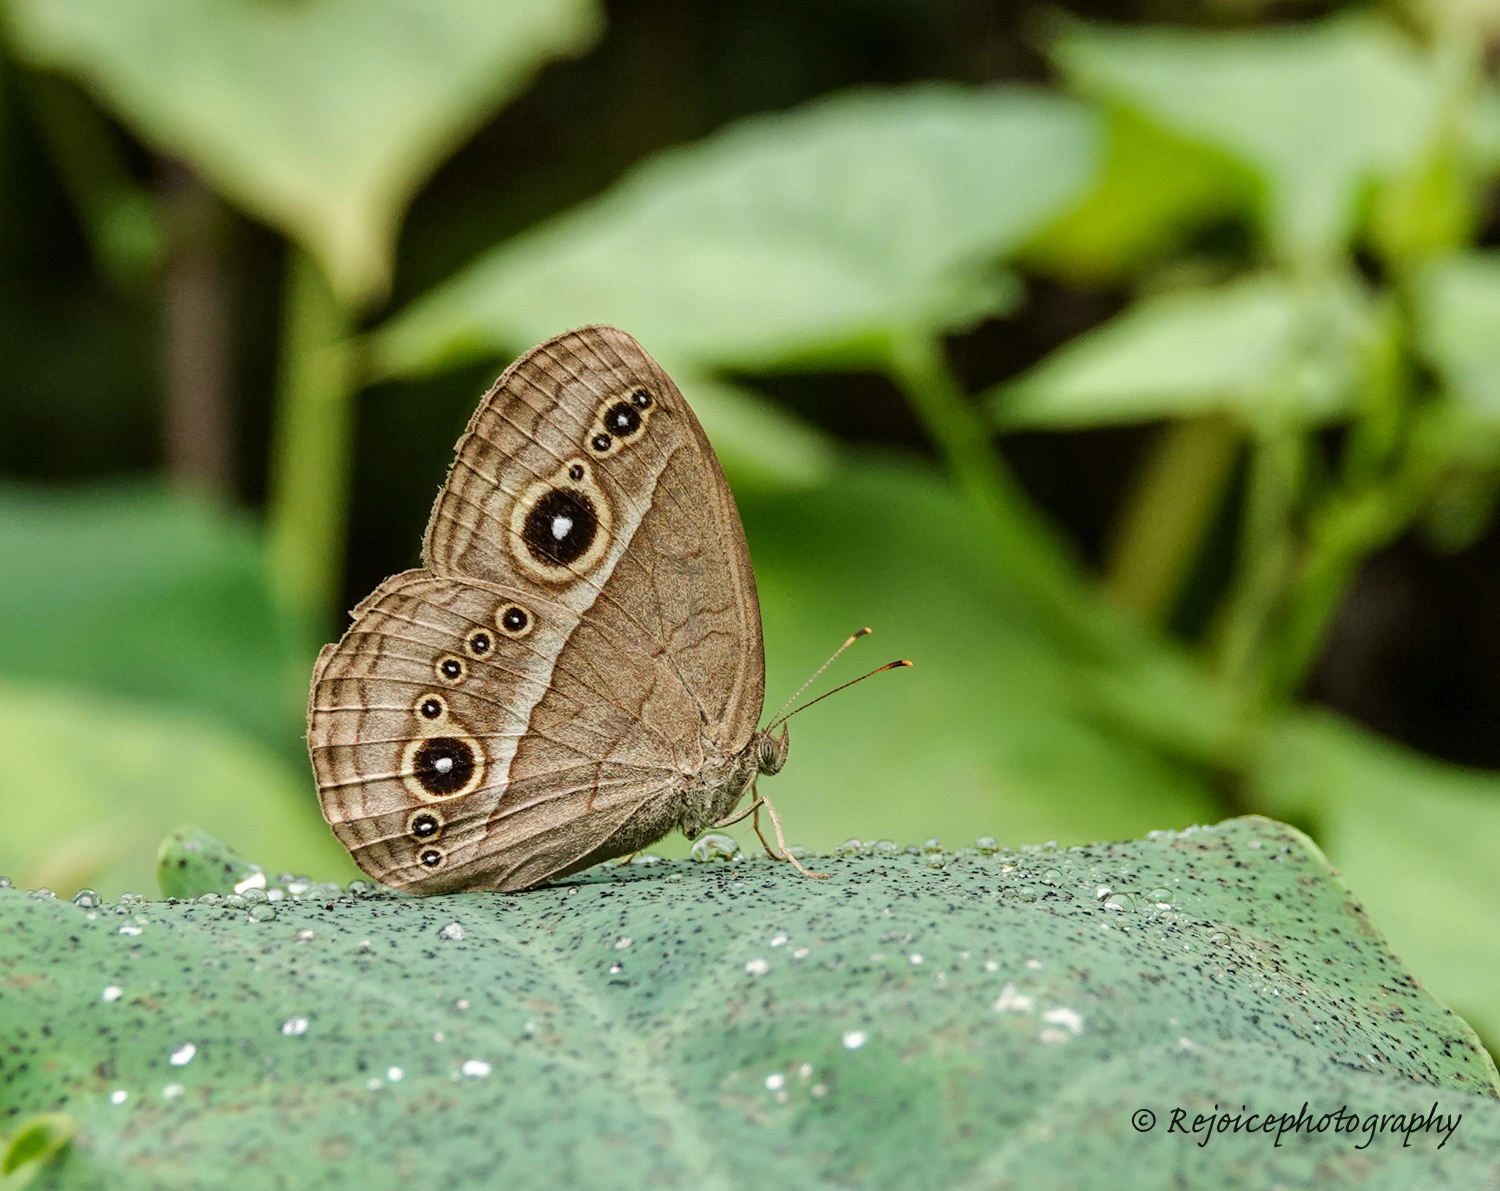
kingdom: Animalia
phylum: Arthropoda
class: Insecta
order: Lepidoptera
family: Nymphalidae
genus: Mycalesis
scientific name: Mycalesis gotama
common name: Chinese bushbrown
